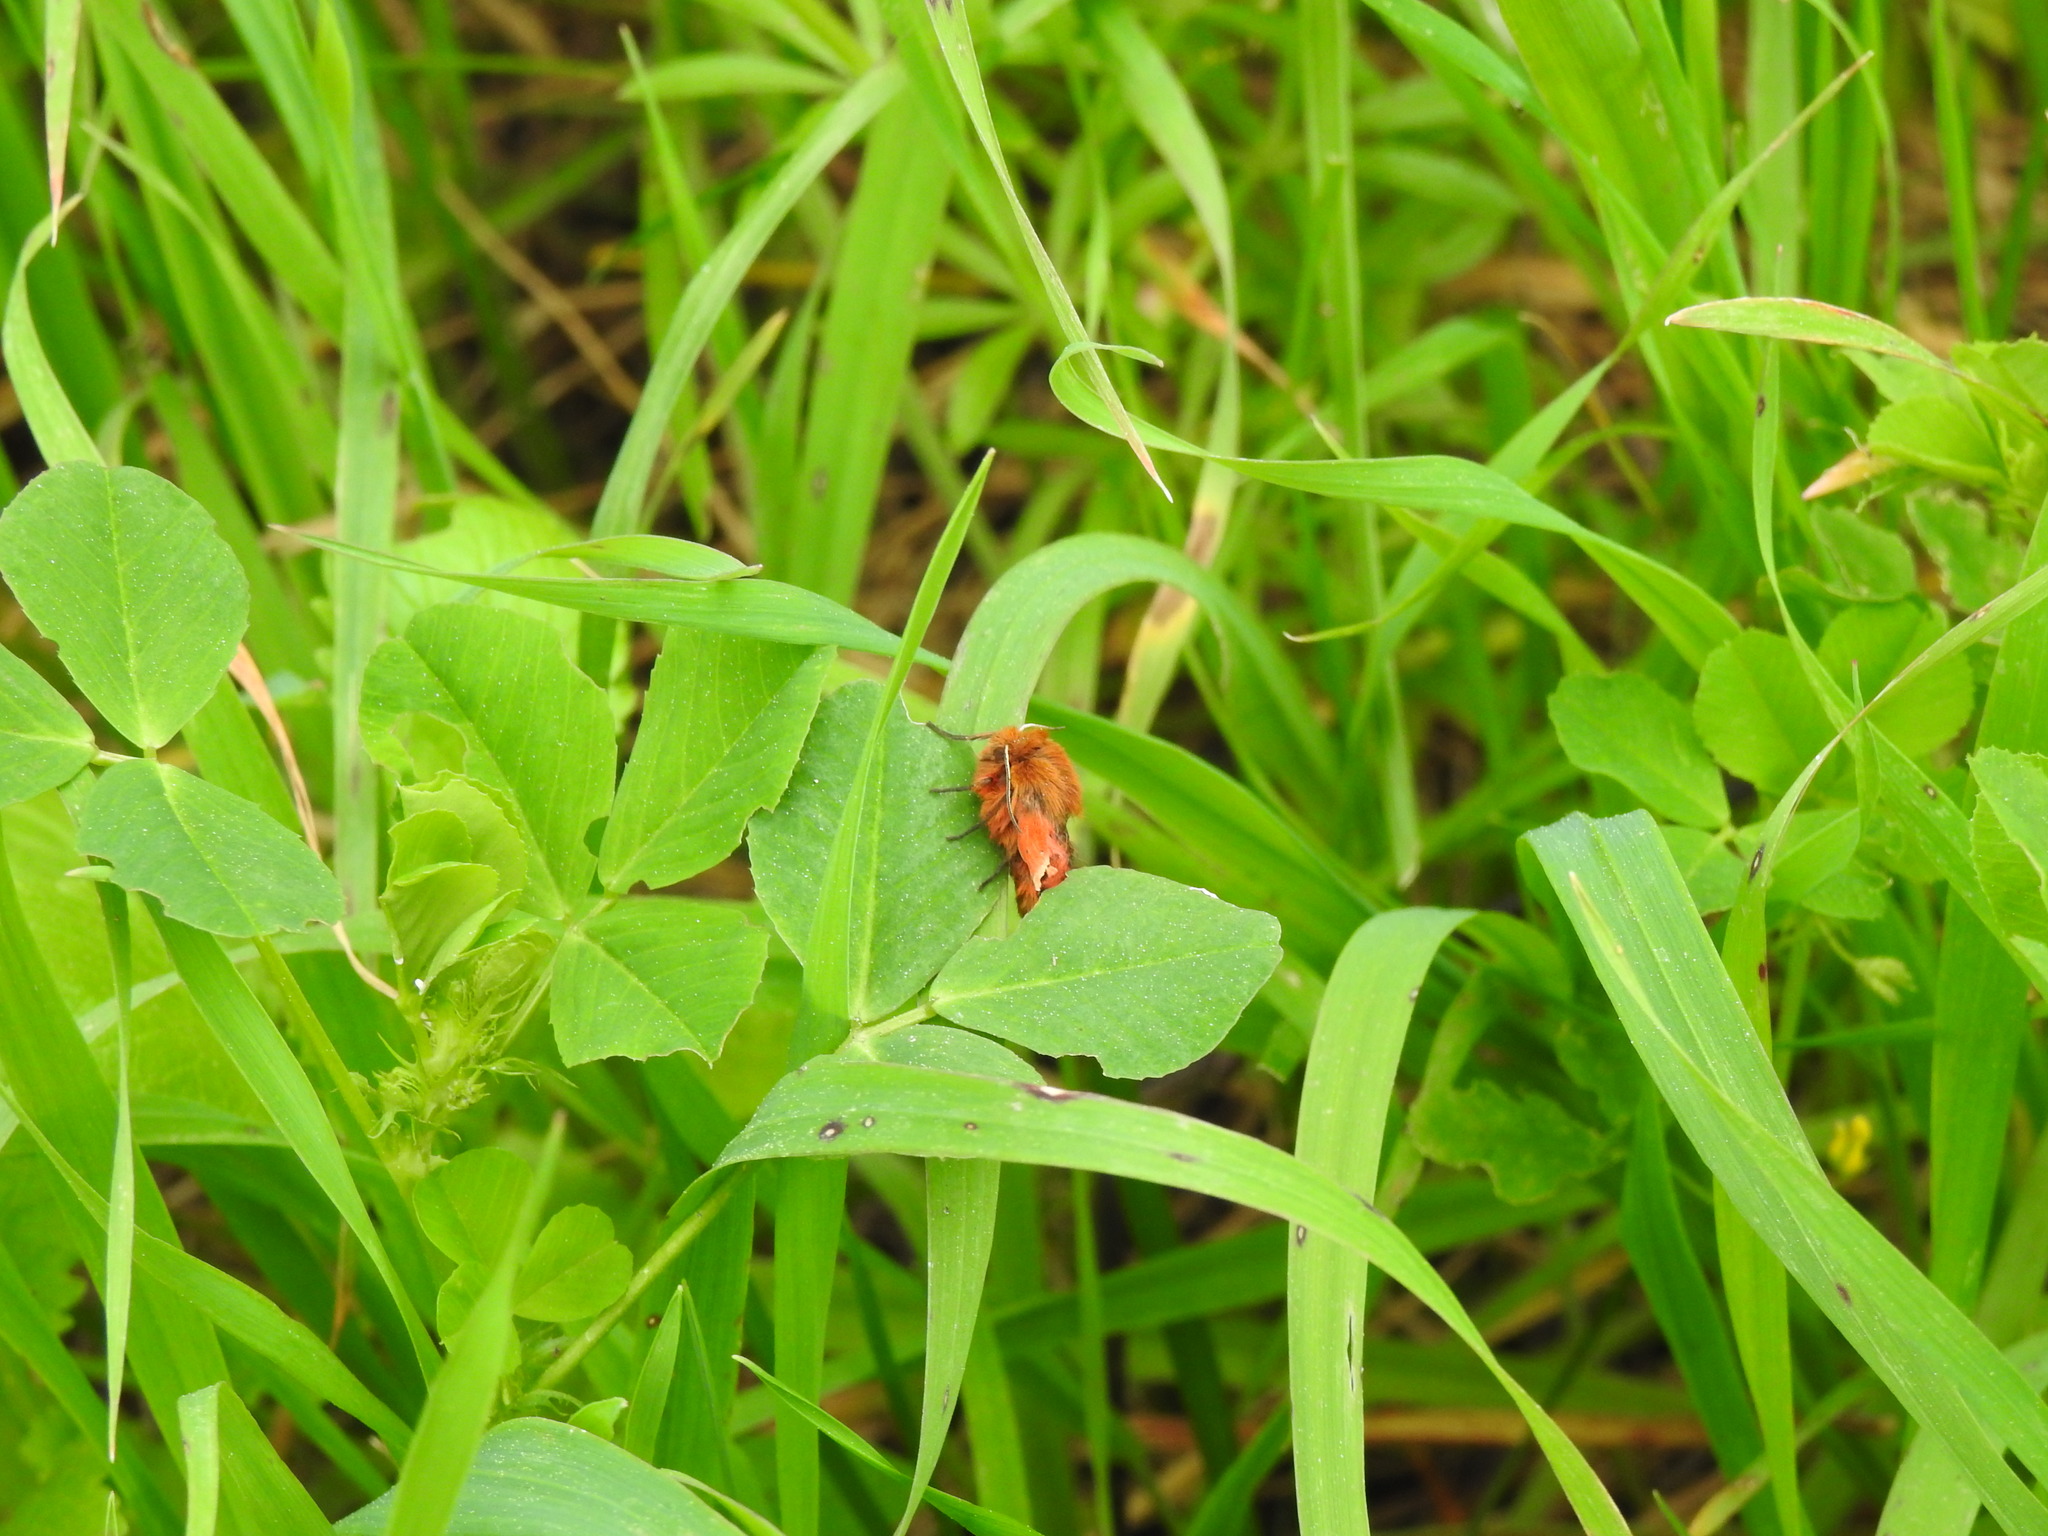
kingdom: Animalia
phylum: Arthropoda
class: Insecta
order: Lepidoptera
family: Erebidae
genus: Phragmatobia
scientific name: Phragmatobia fuliginosa
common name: Ruby tiger
